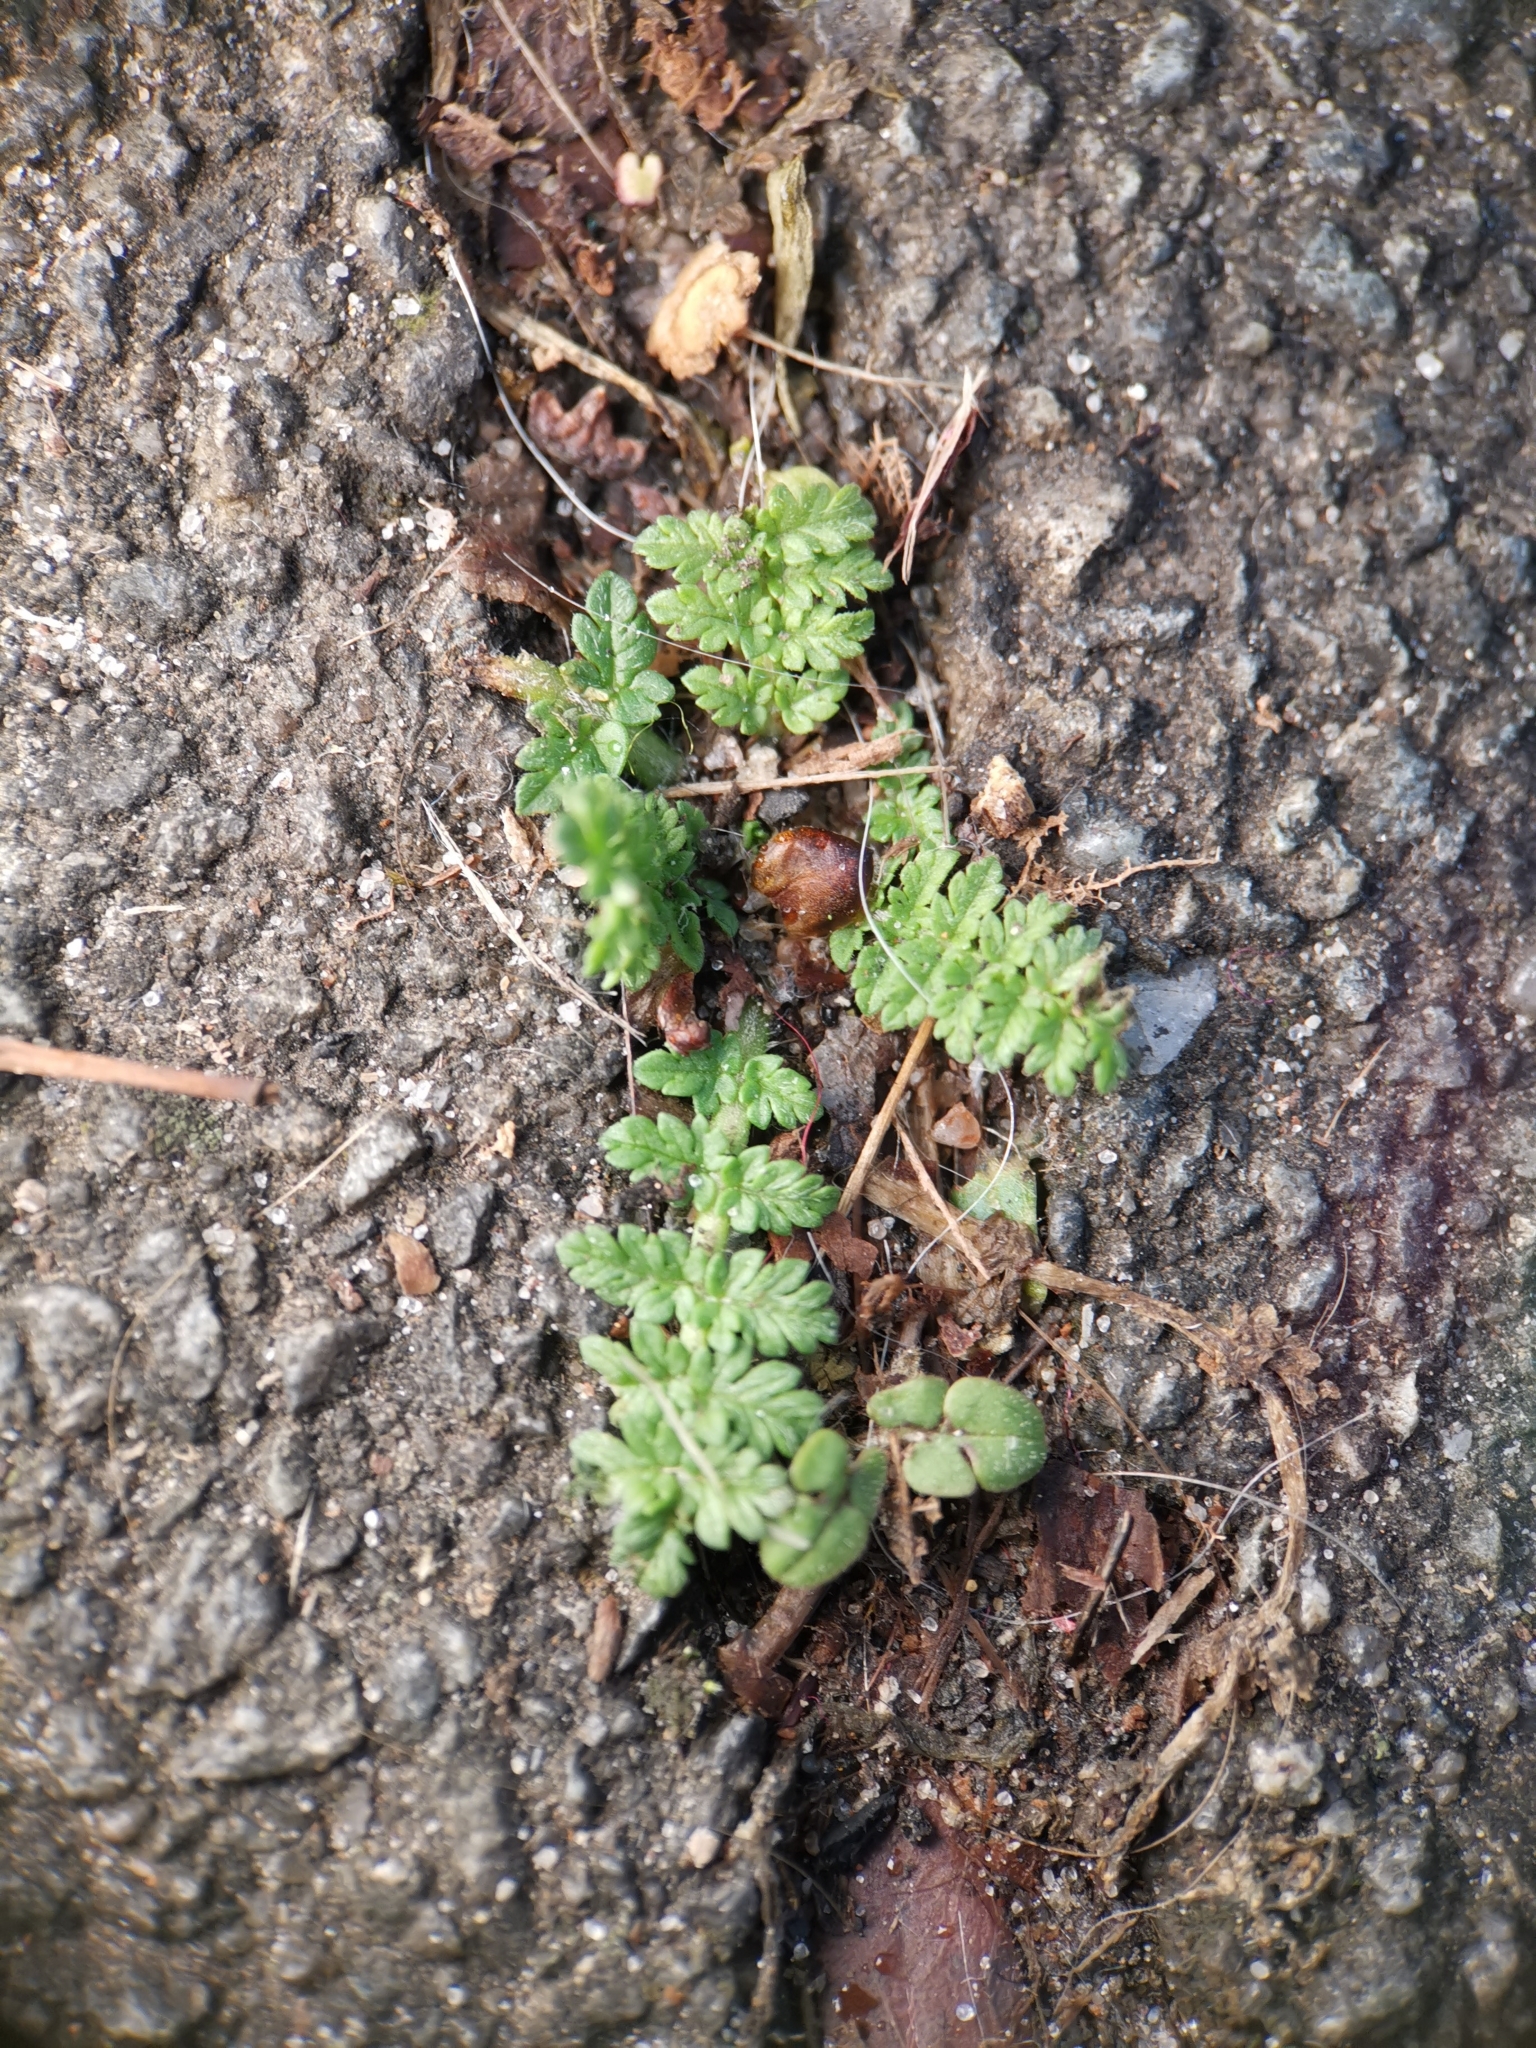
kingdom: Plantae
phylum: Tracheophyta
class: Magnoliopsida
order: Geraniales
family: Geraniaceae
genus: Erodium
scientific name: Erodium cicutarium
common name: Common stork's-bill
